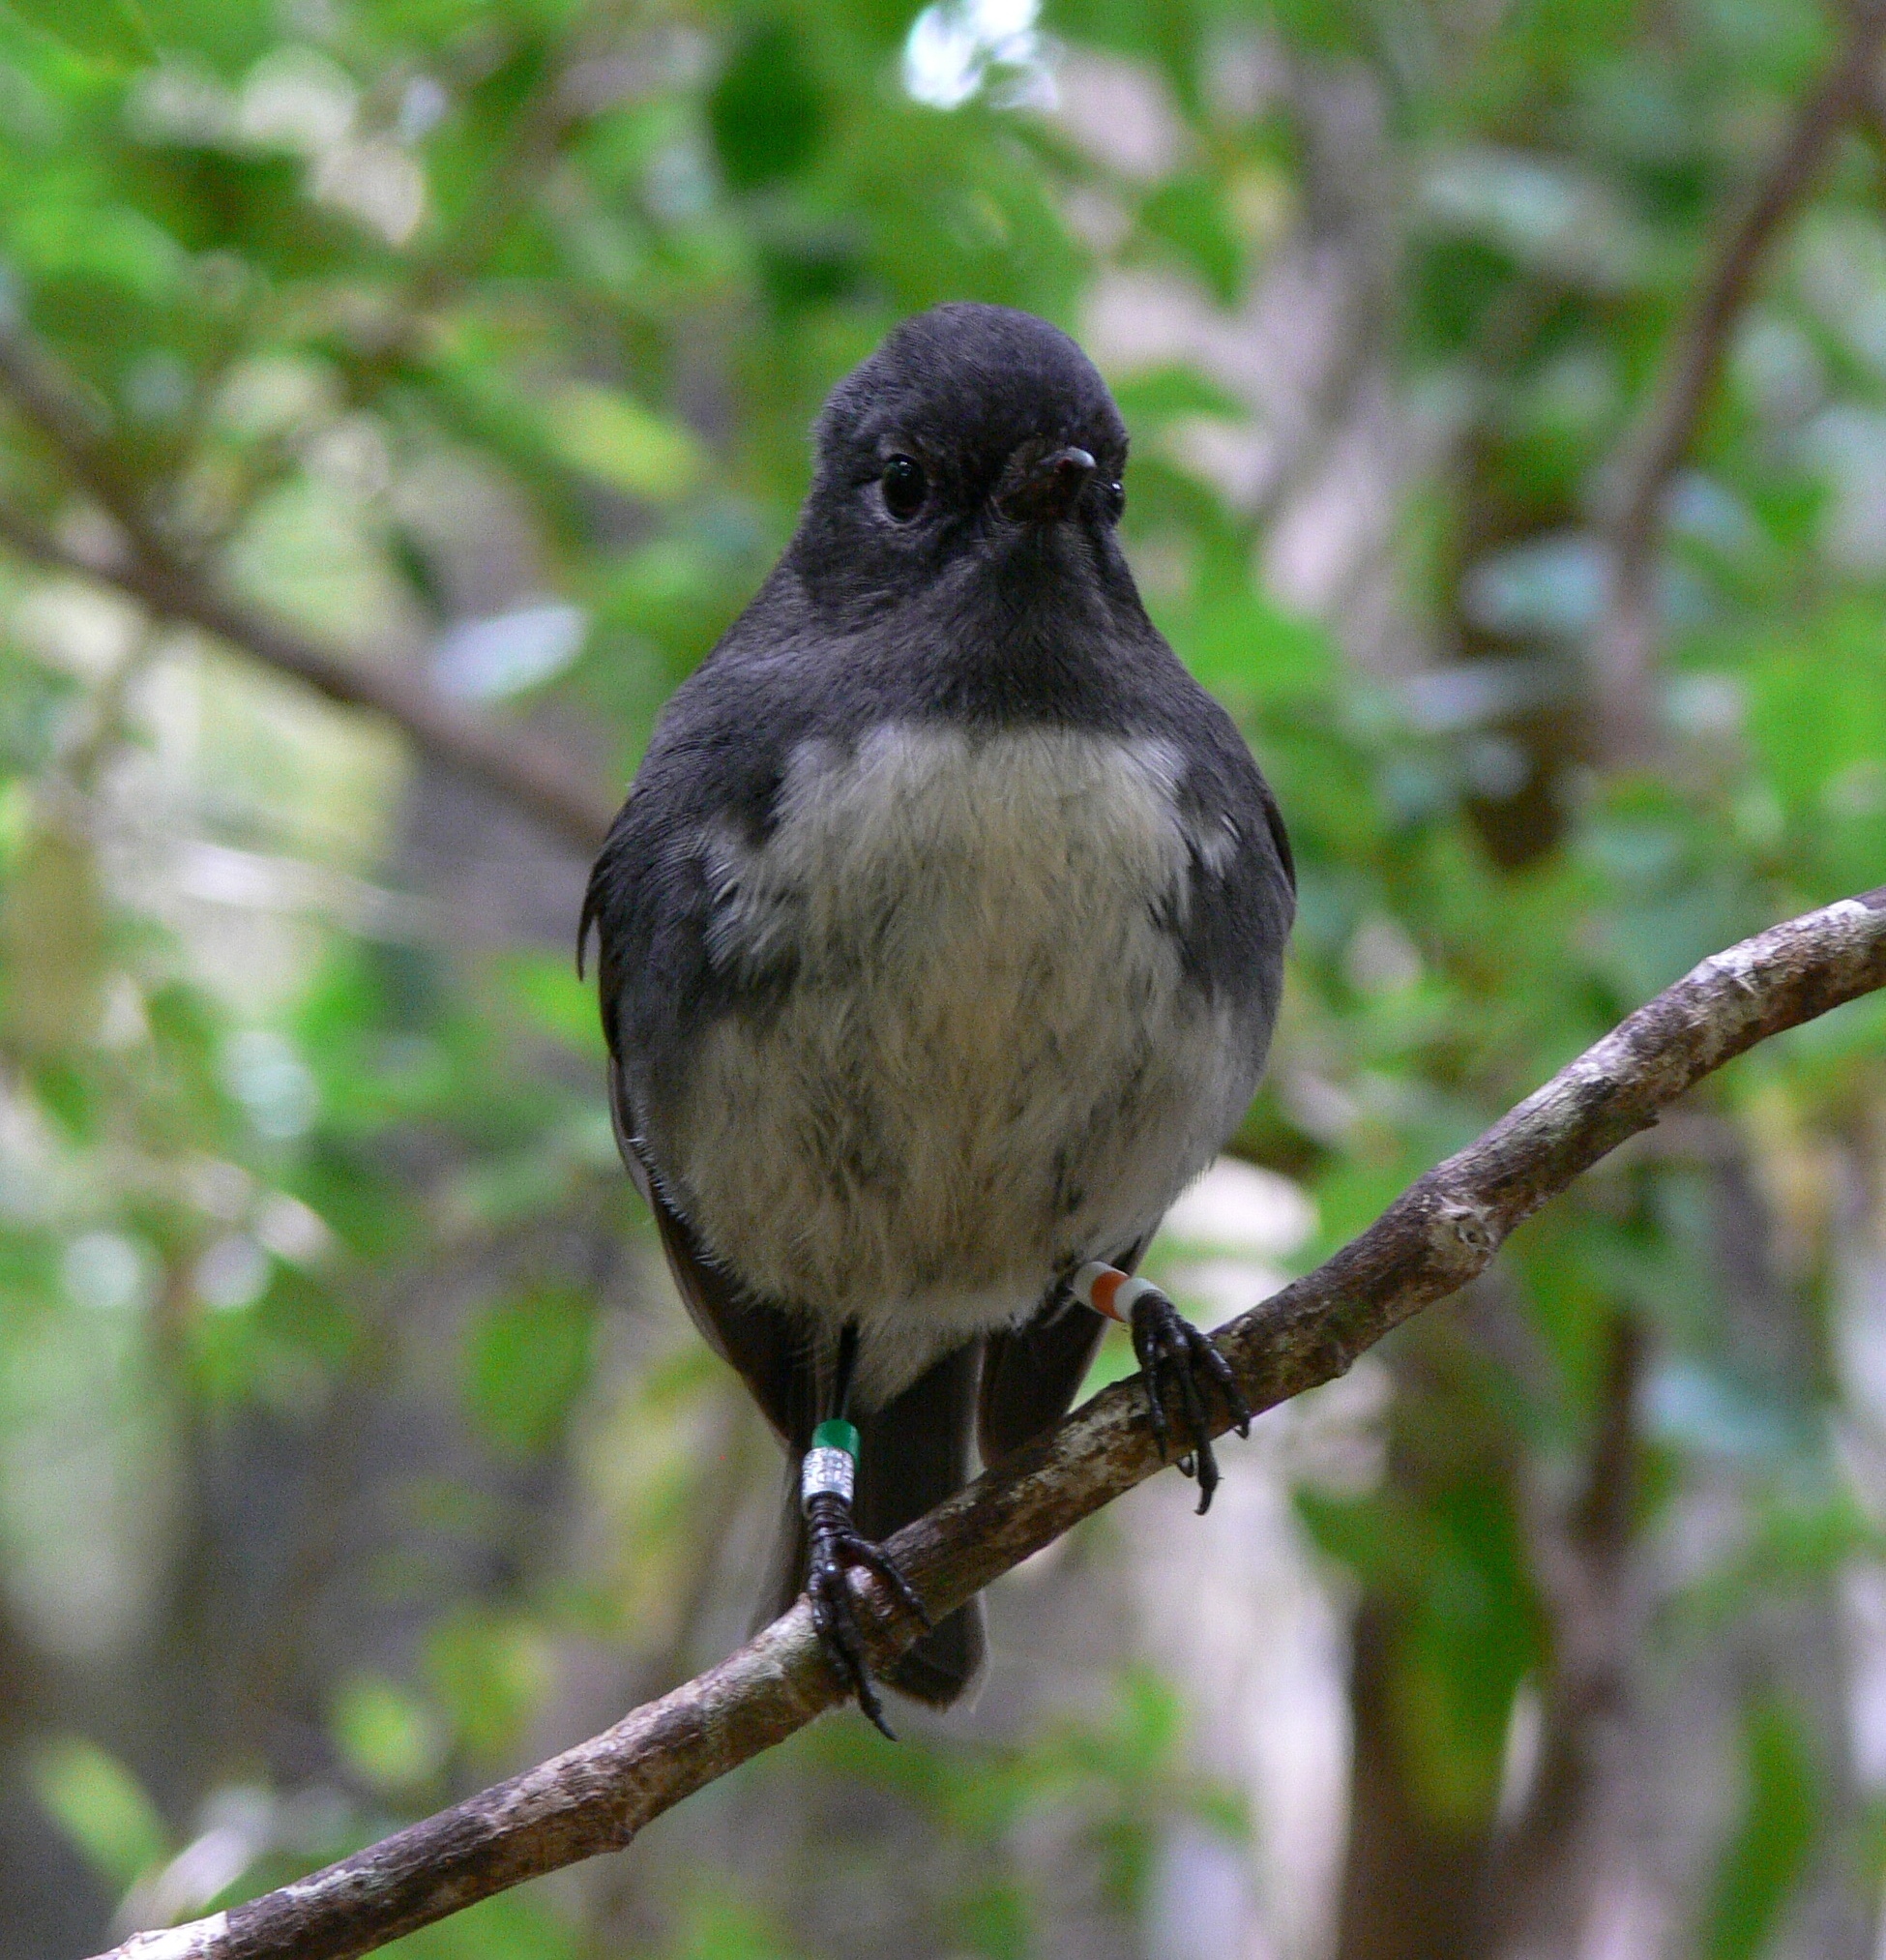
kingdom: Animalia
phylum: Chordata
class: Aves
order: Passeriformes
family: Petroicidae
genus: Petroica
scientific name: Petroica australis
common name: New zealand robin
